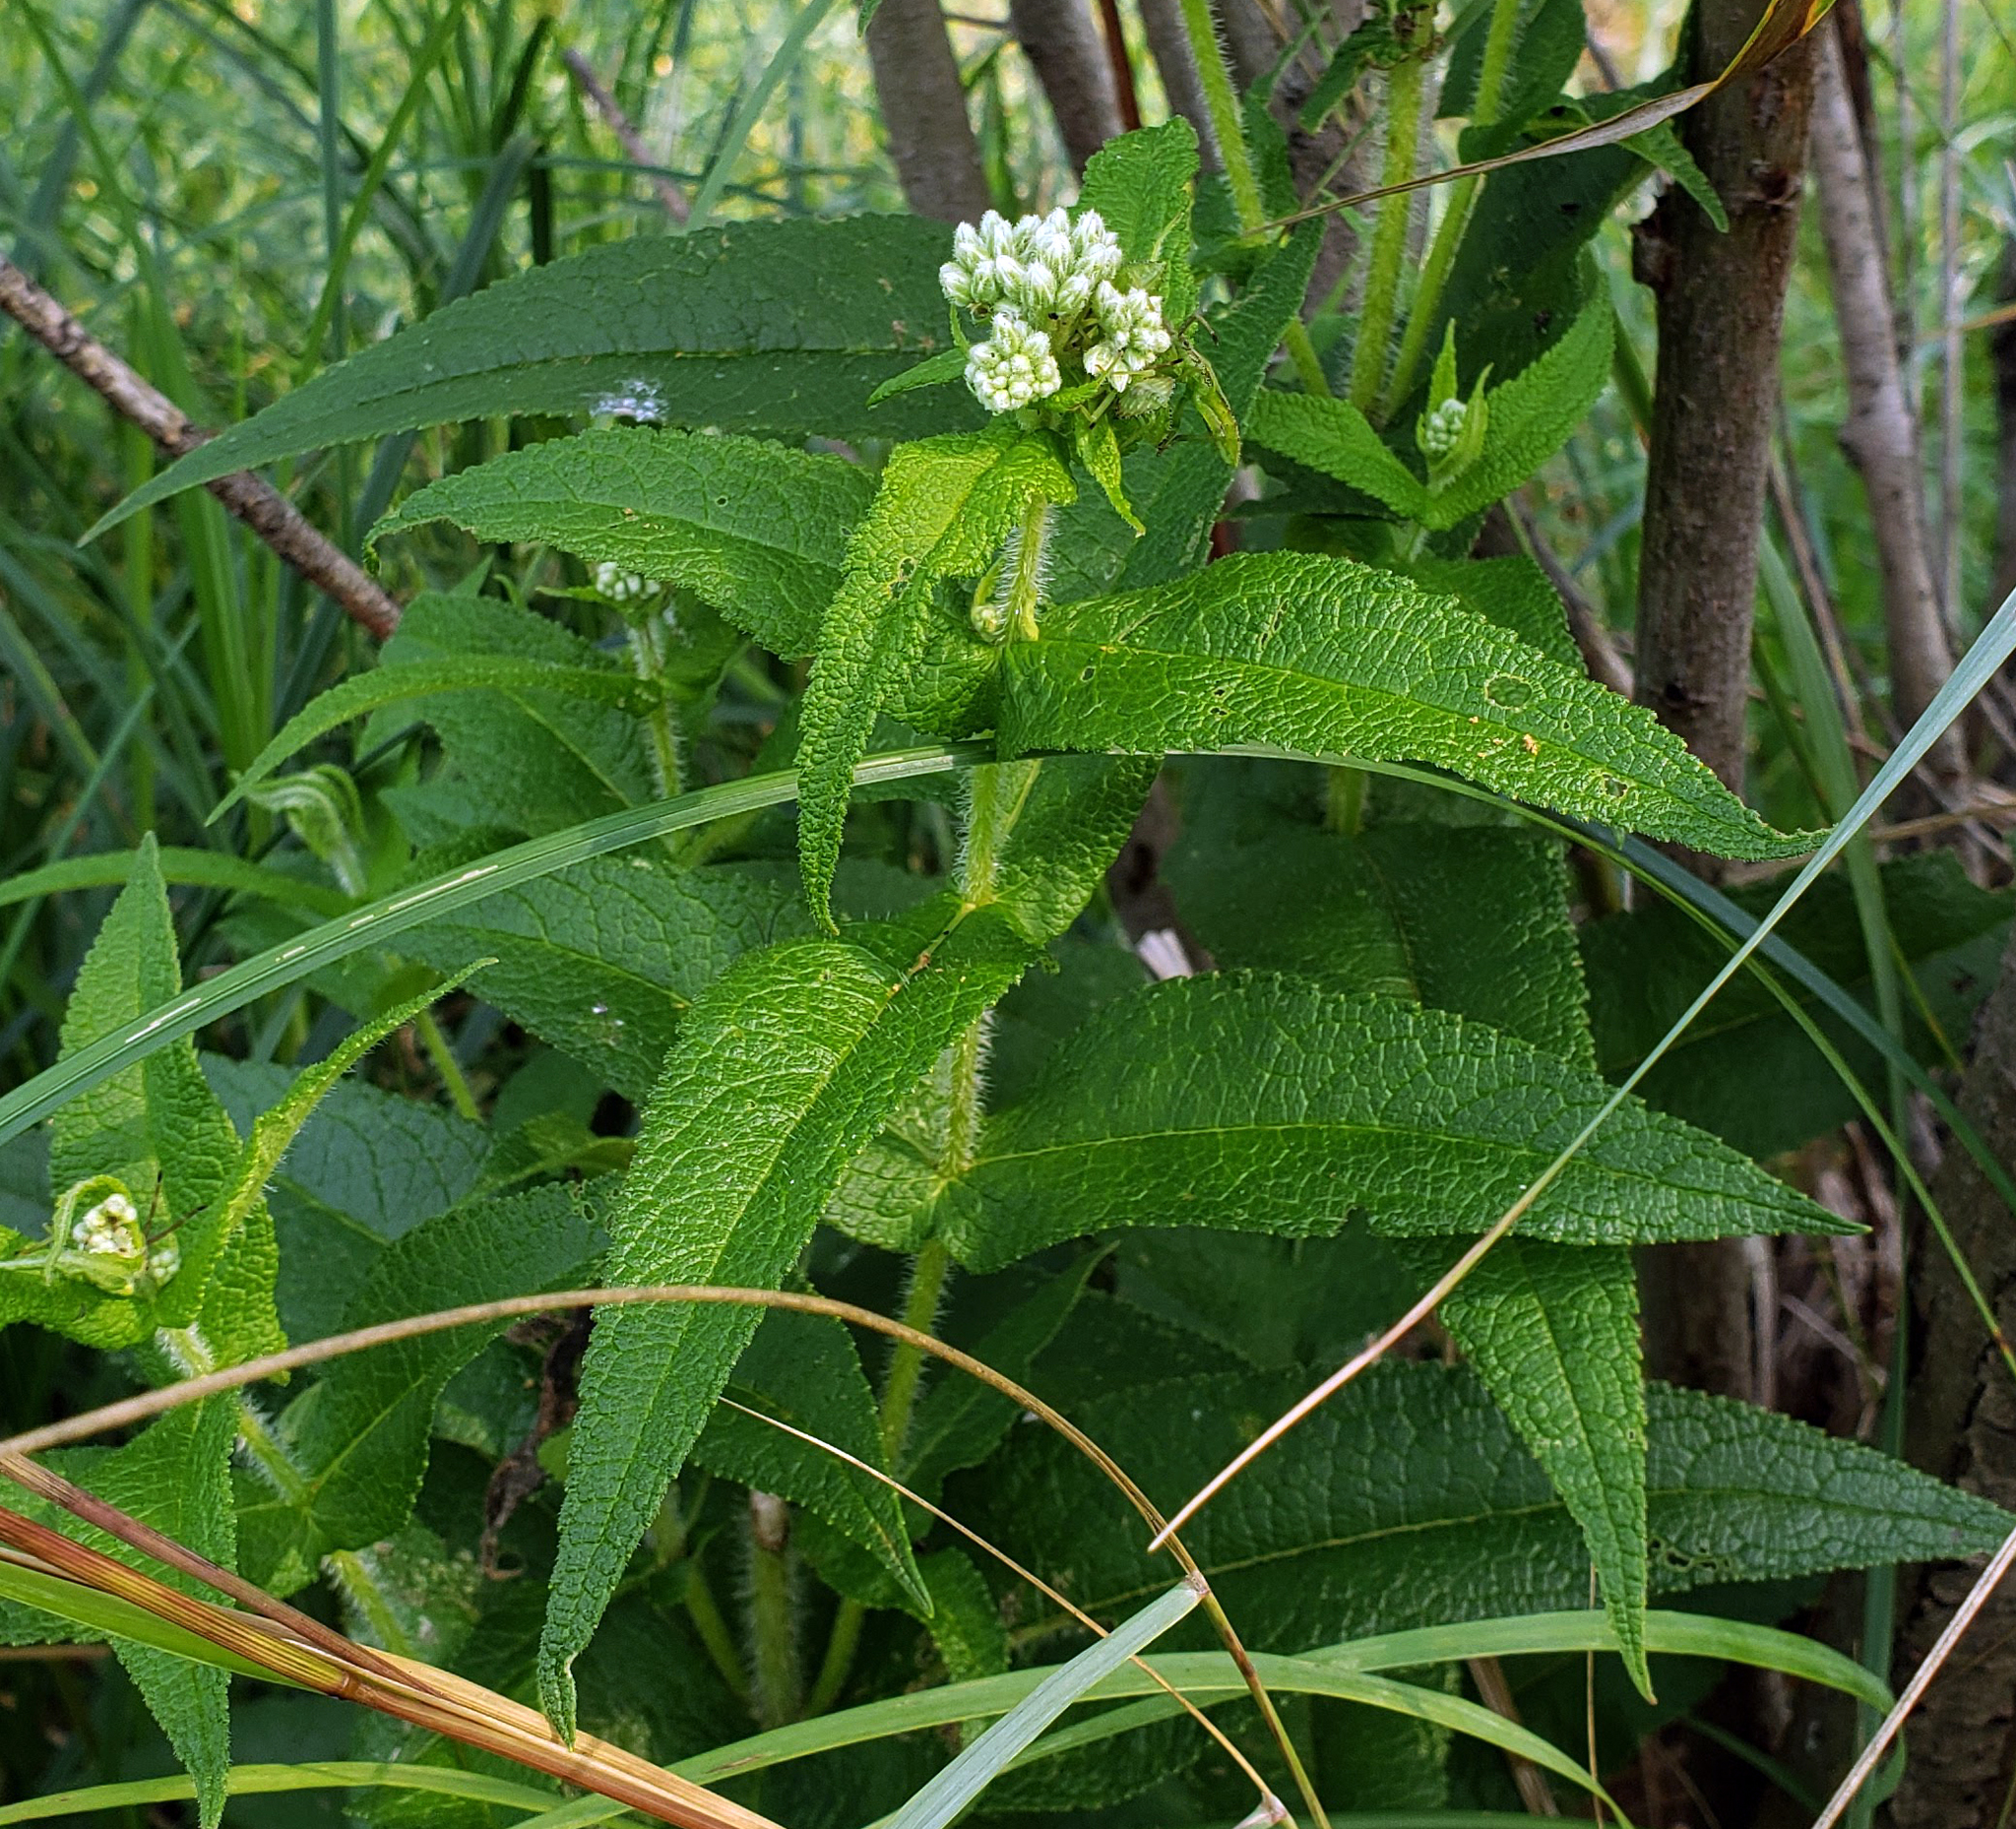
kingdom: Plantae
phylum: Tracheophyta
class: Magnoliopsida
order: Asterales
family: Asteraceae
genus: Eupatorium
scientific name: Eupatorium perfoliatum
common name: Boneset
